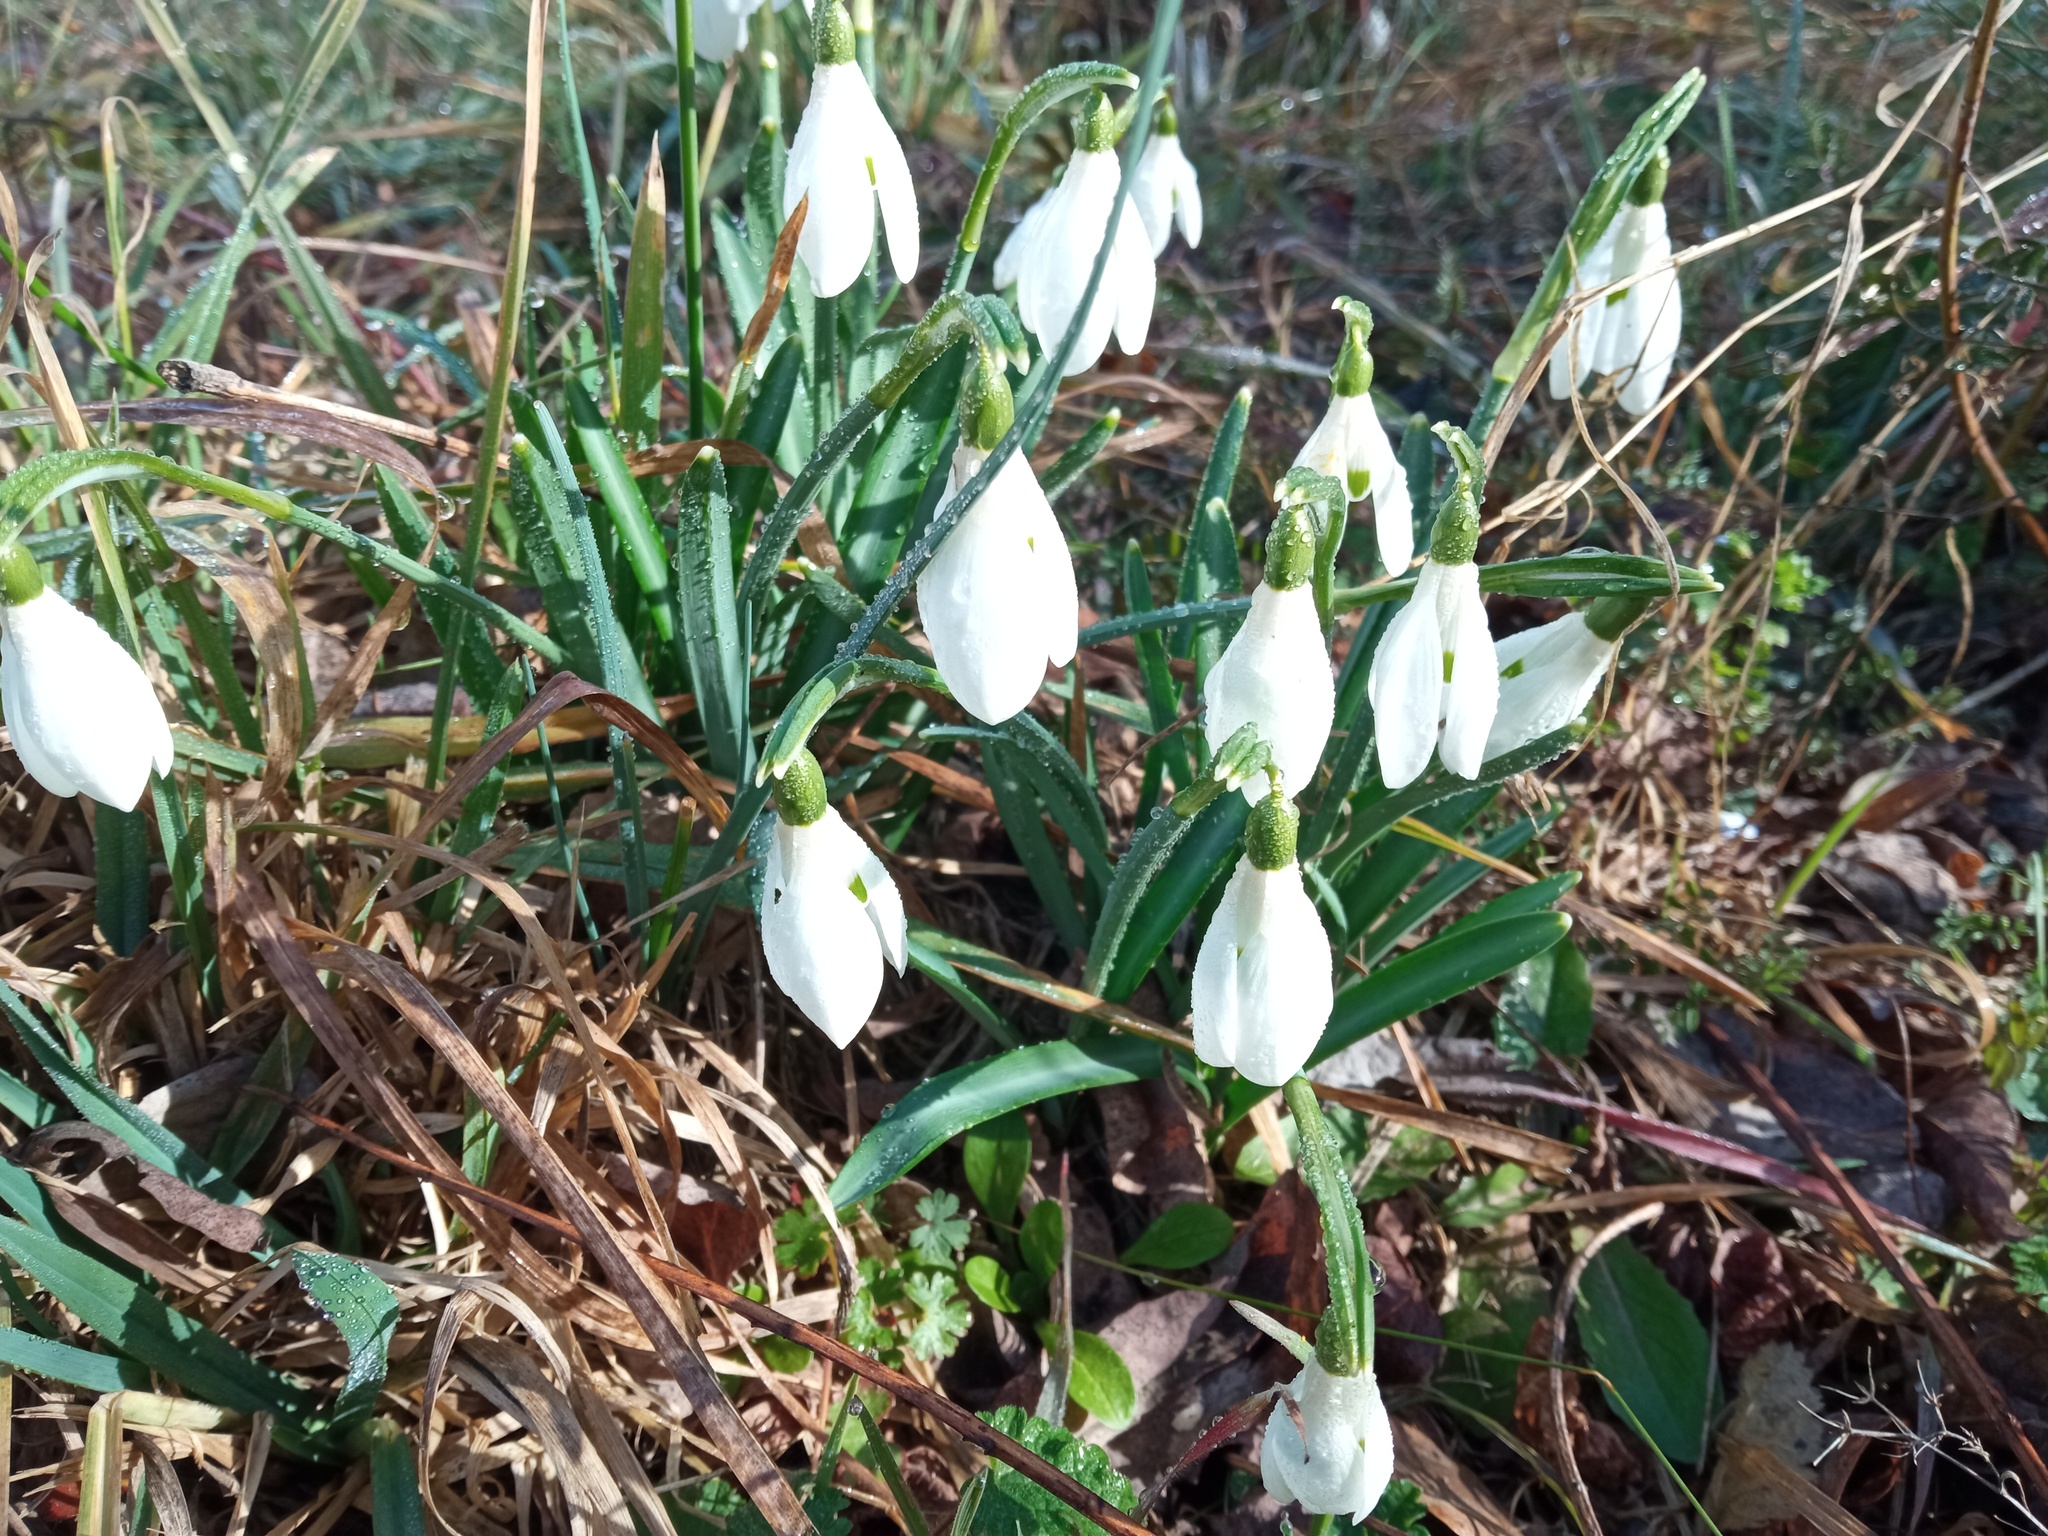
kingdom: Plantae
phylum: Tracheophyta
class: Liliopsida
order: Asparagales
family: Amaryllidaceae
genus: Galanthus
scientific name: Galanthus nivalis
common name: Snowdrop
